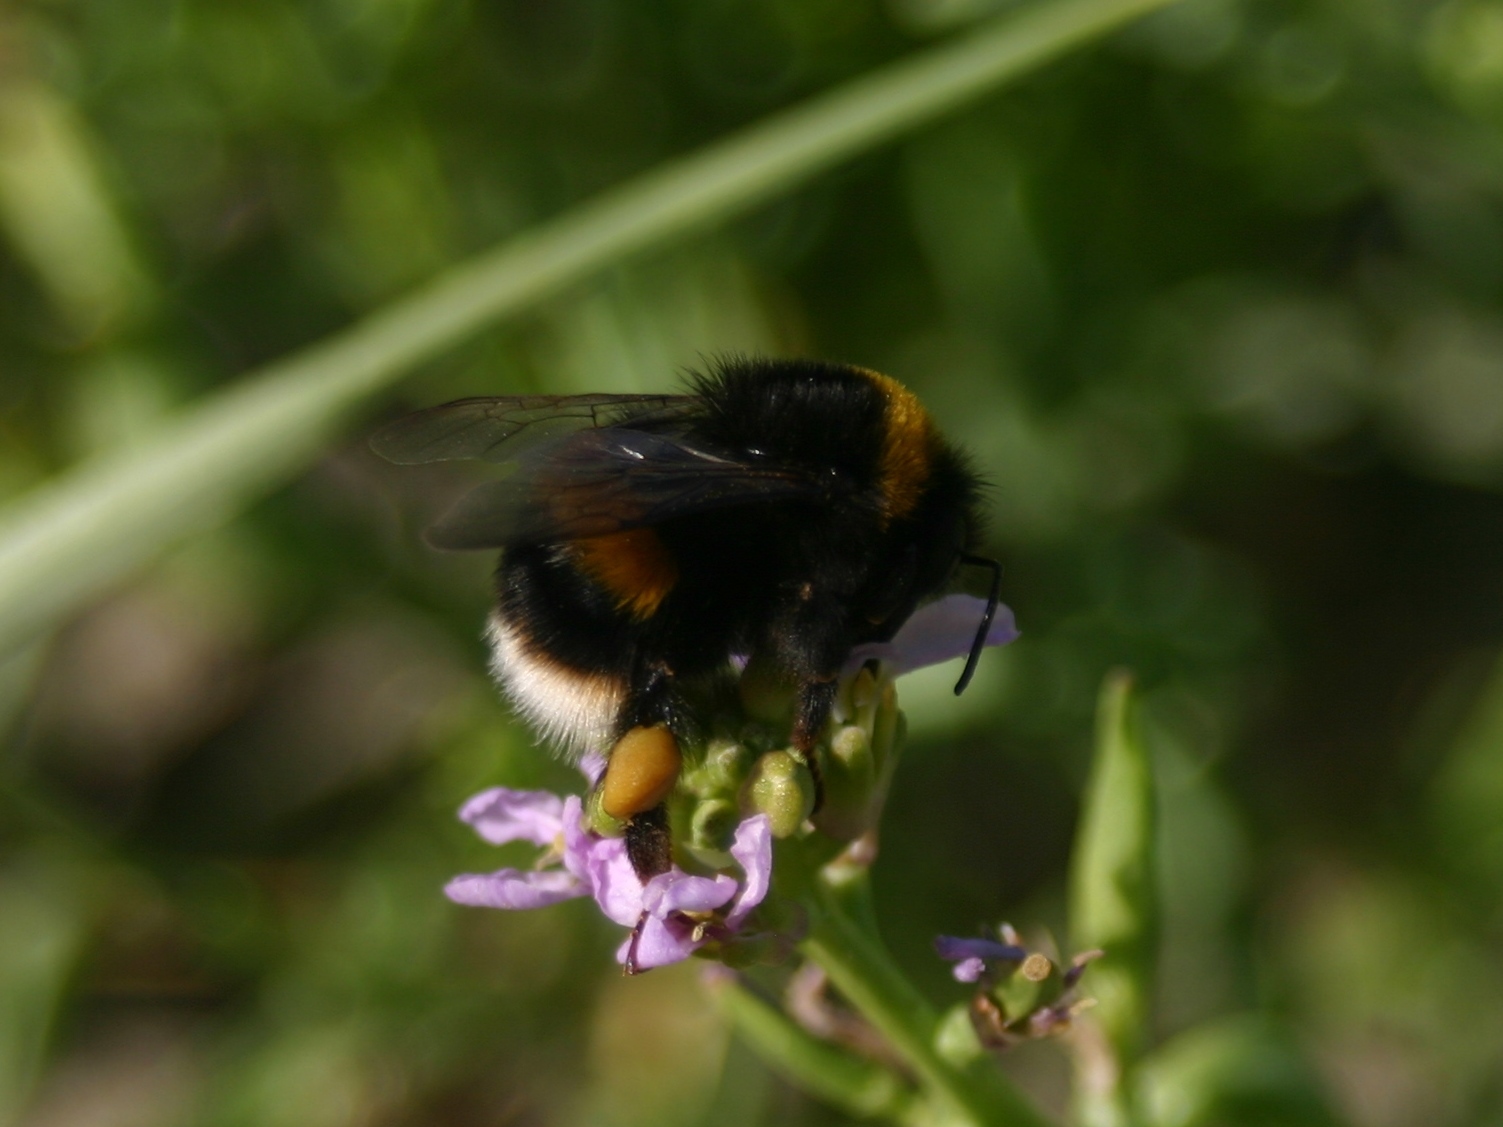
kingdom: Animalia
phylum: Arthropoda
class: Insecta
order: Hymenoptera
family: Apidae
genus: Bombus
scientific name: Bombus terrestris
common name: Buff-tailed bumblebee
